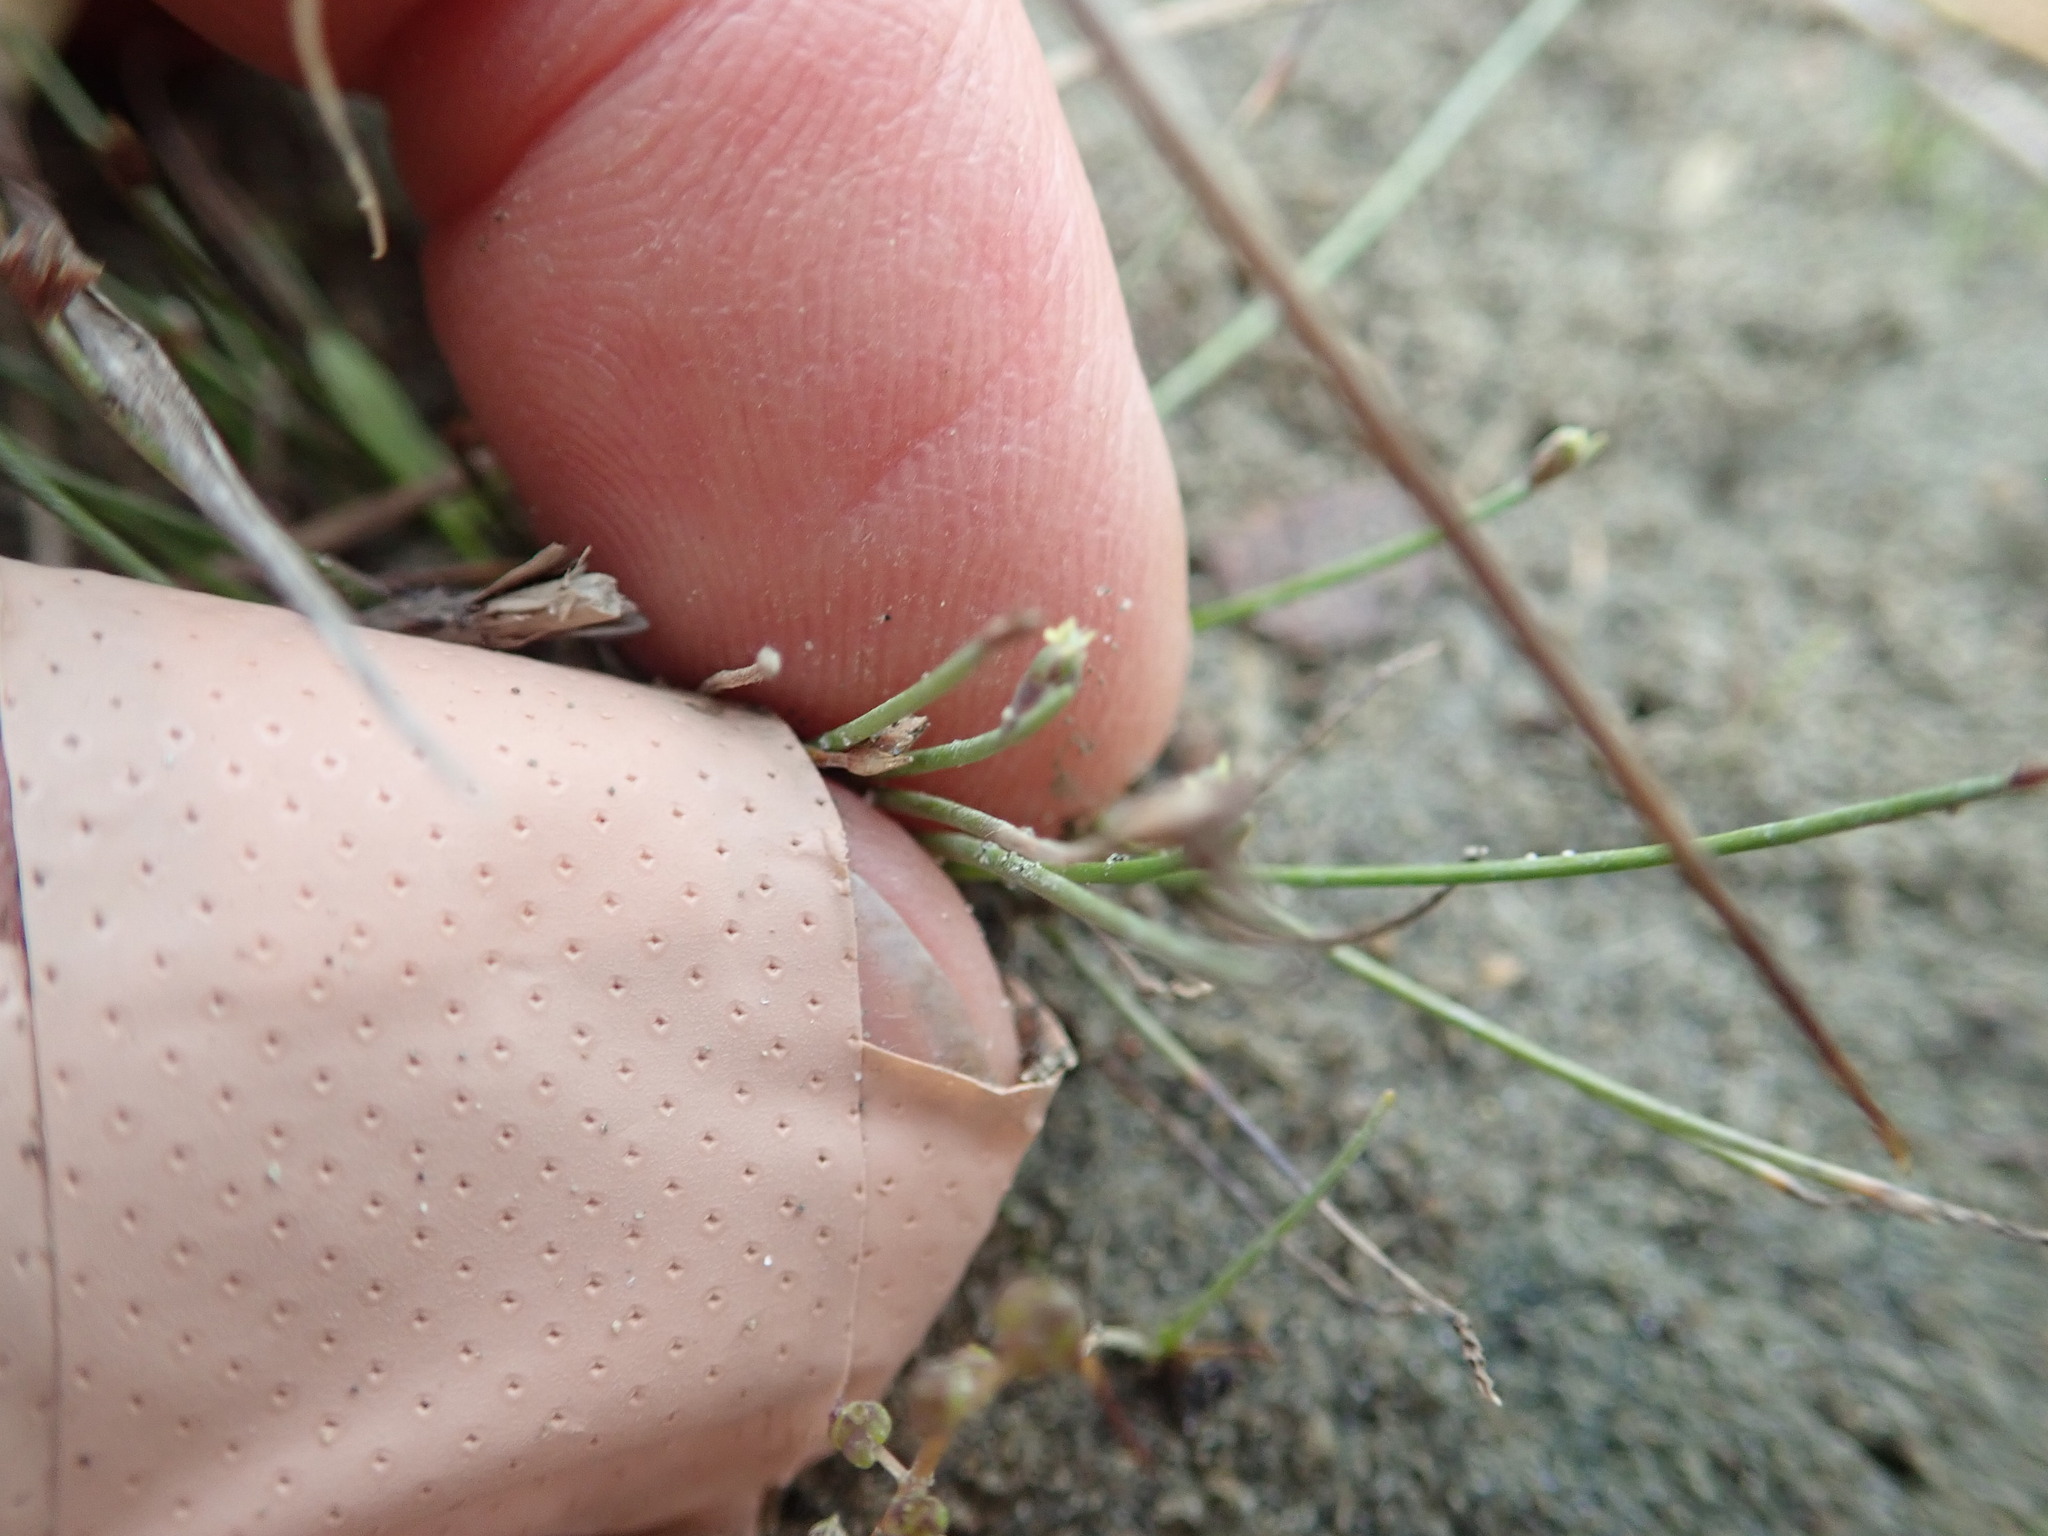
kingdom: Plantae
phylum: Tracheophyta
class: Liliopsida
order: Poales
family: Cyperaceae
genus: Isolepis
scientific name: Isolepis cernua
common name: Slender club-rush
